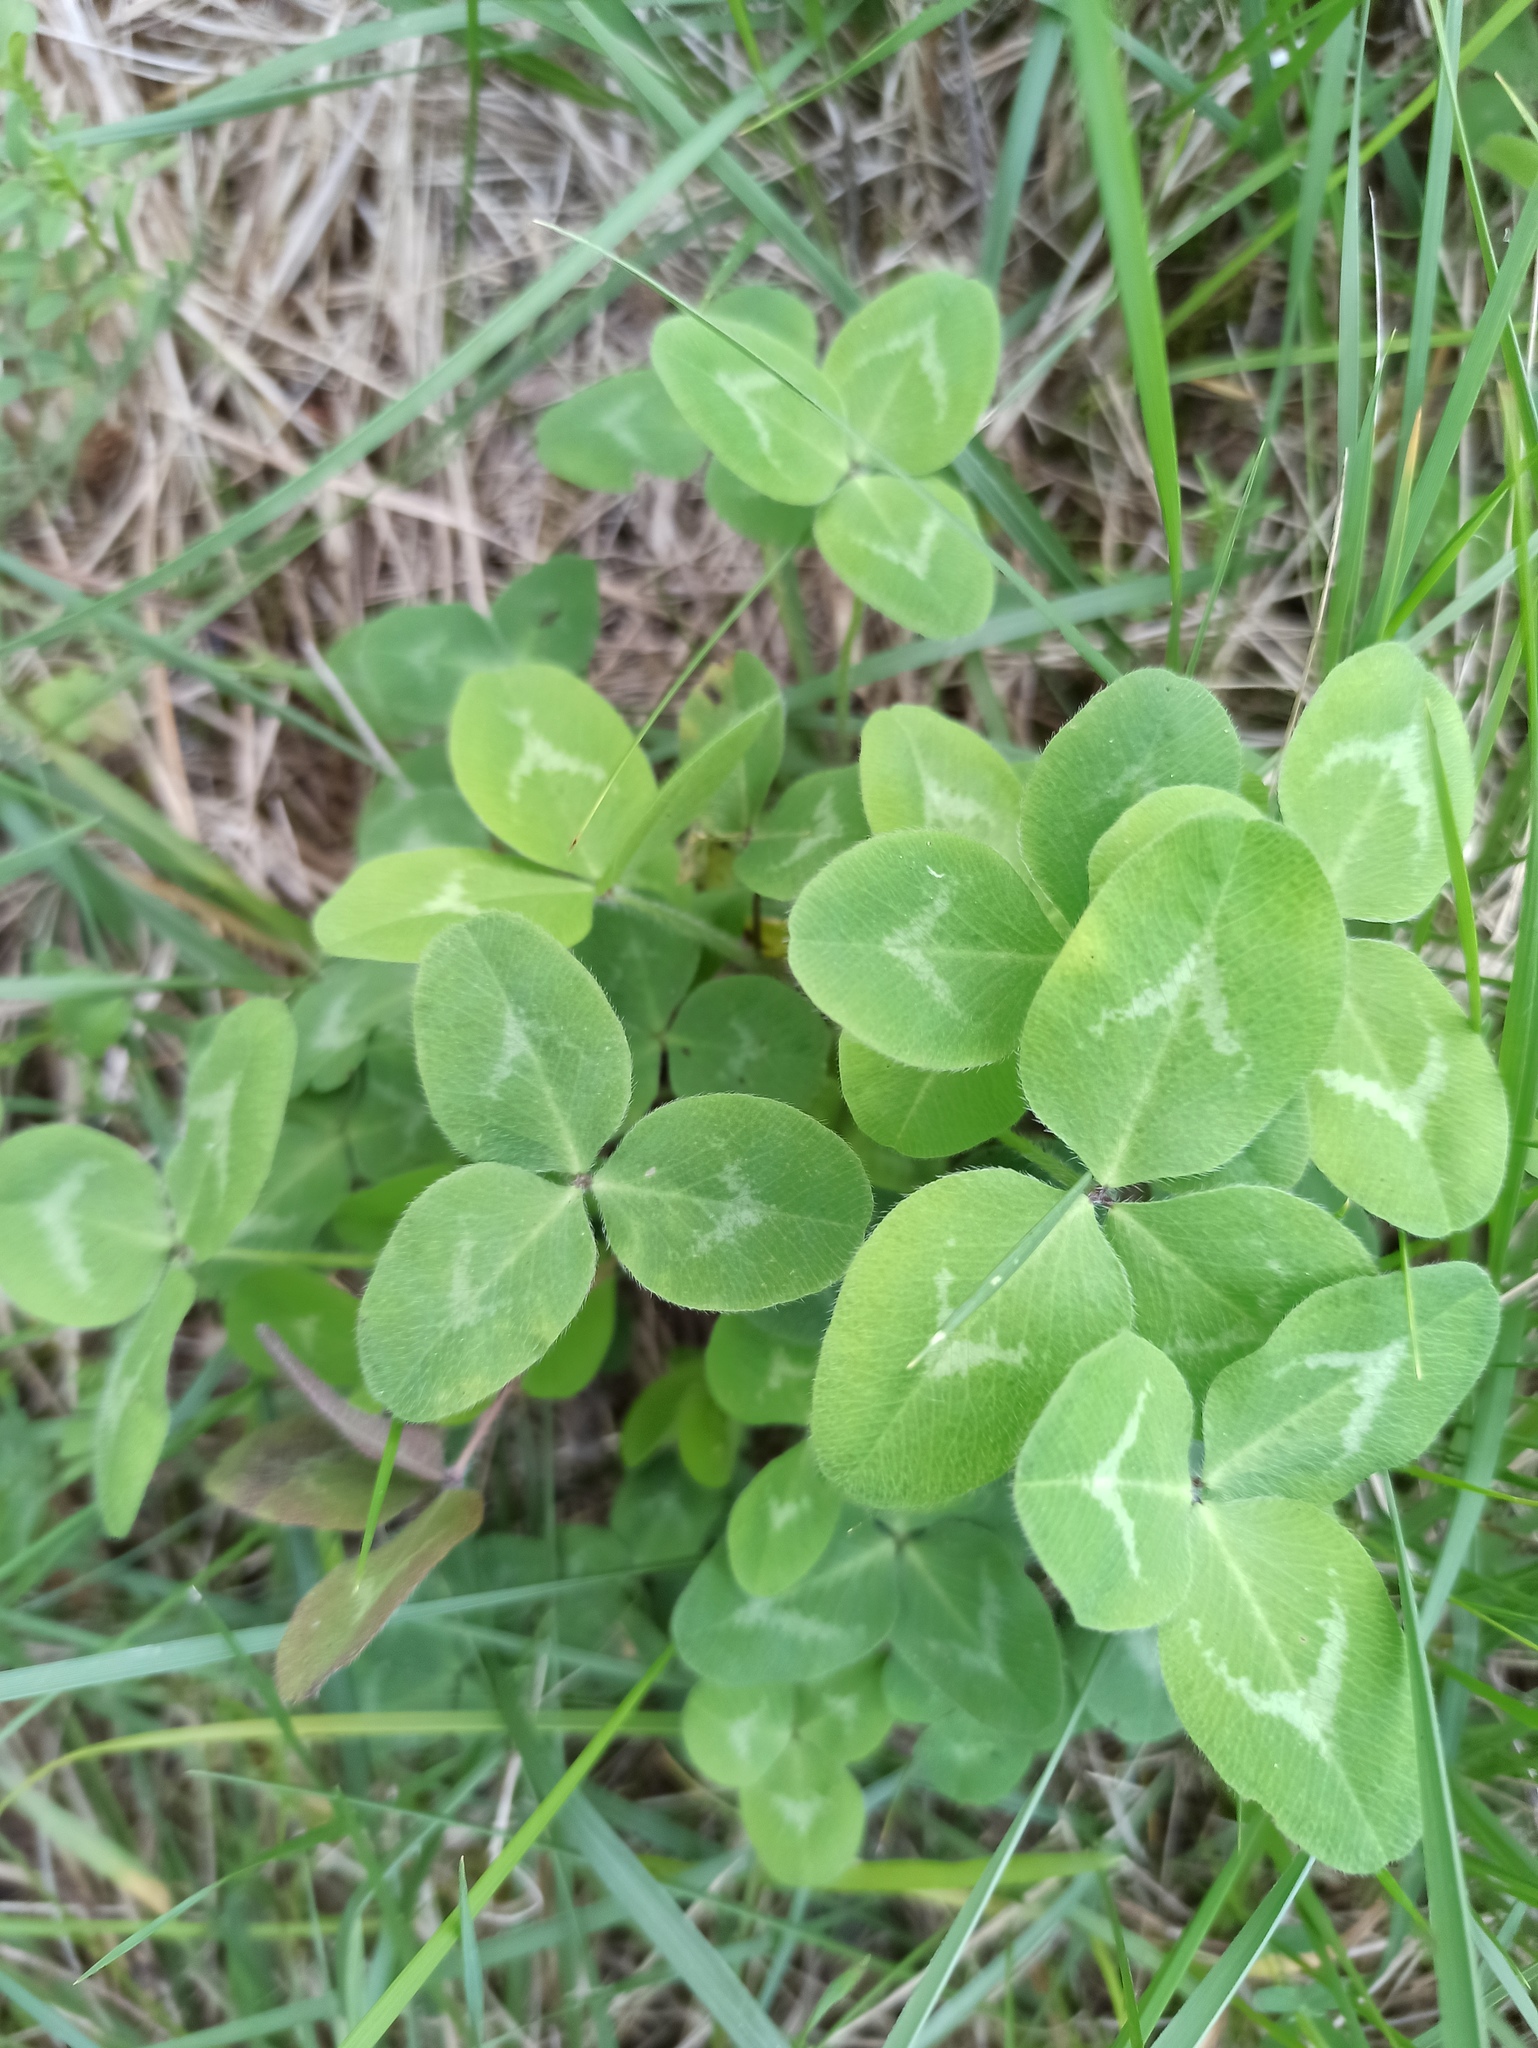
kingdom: Plantae
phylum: Tracheophyta
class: Magnoliopsida
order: Fabales
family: Fabaceae
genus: Trifolium
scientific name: Trifolium pratense
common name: Red clover
